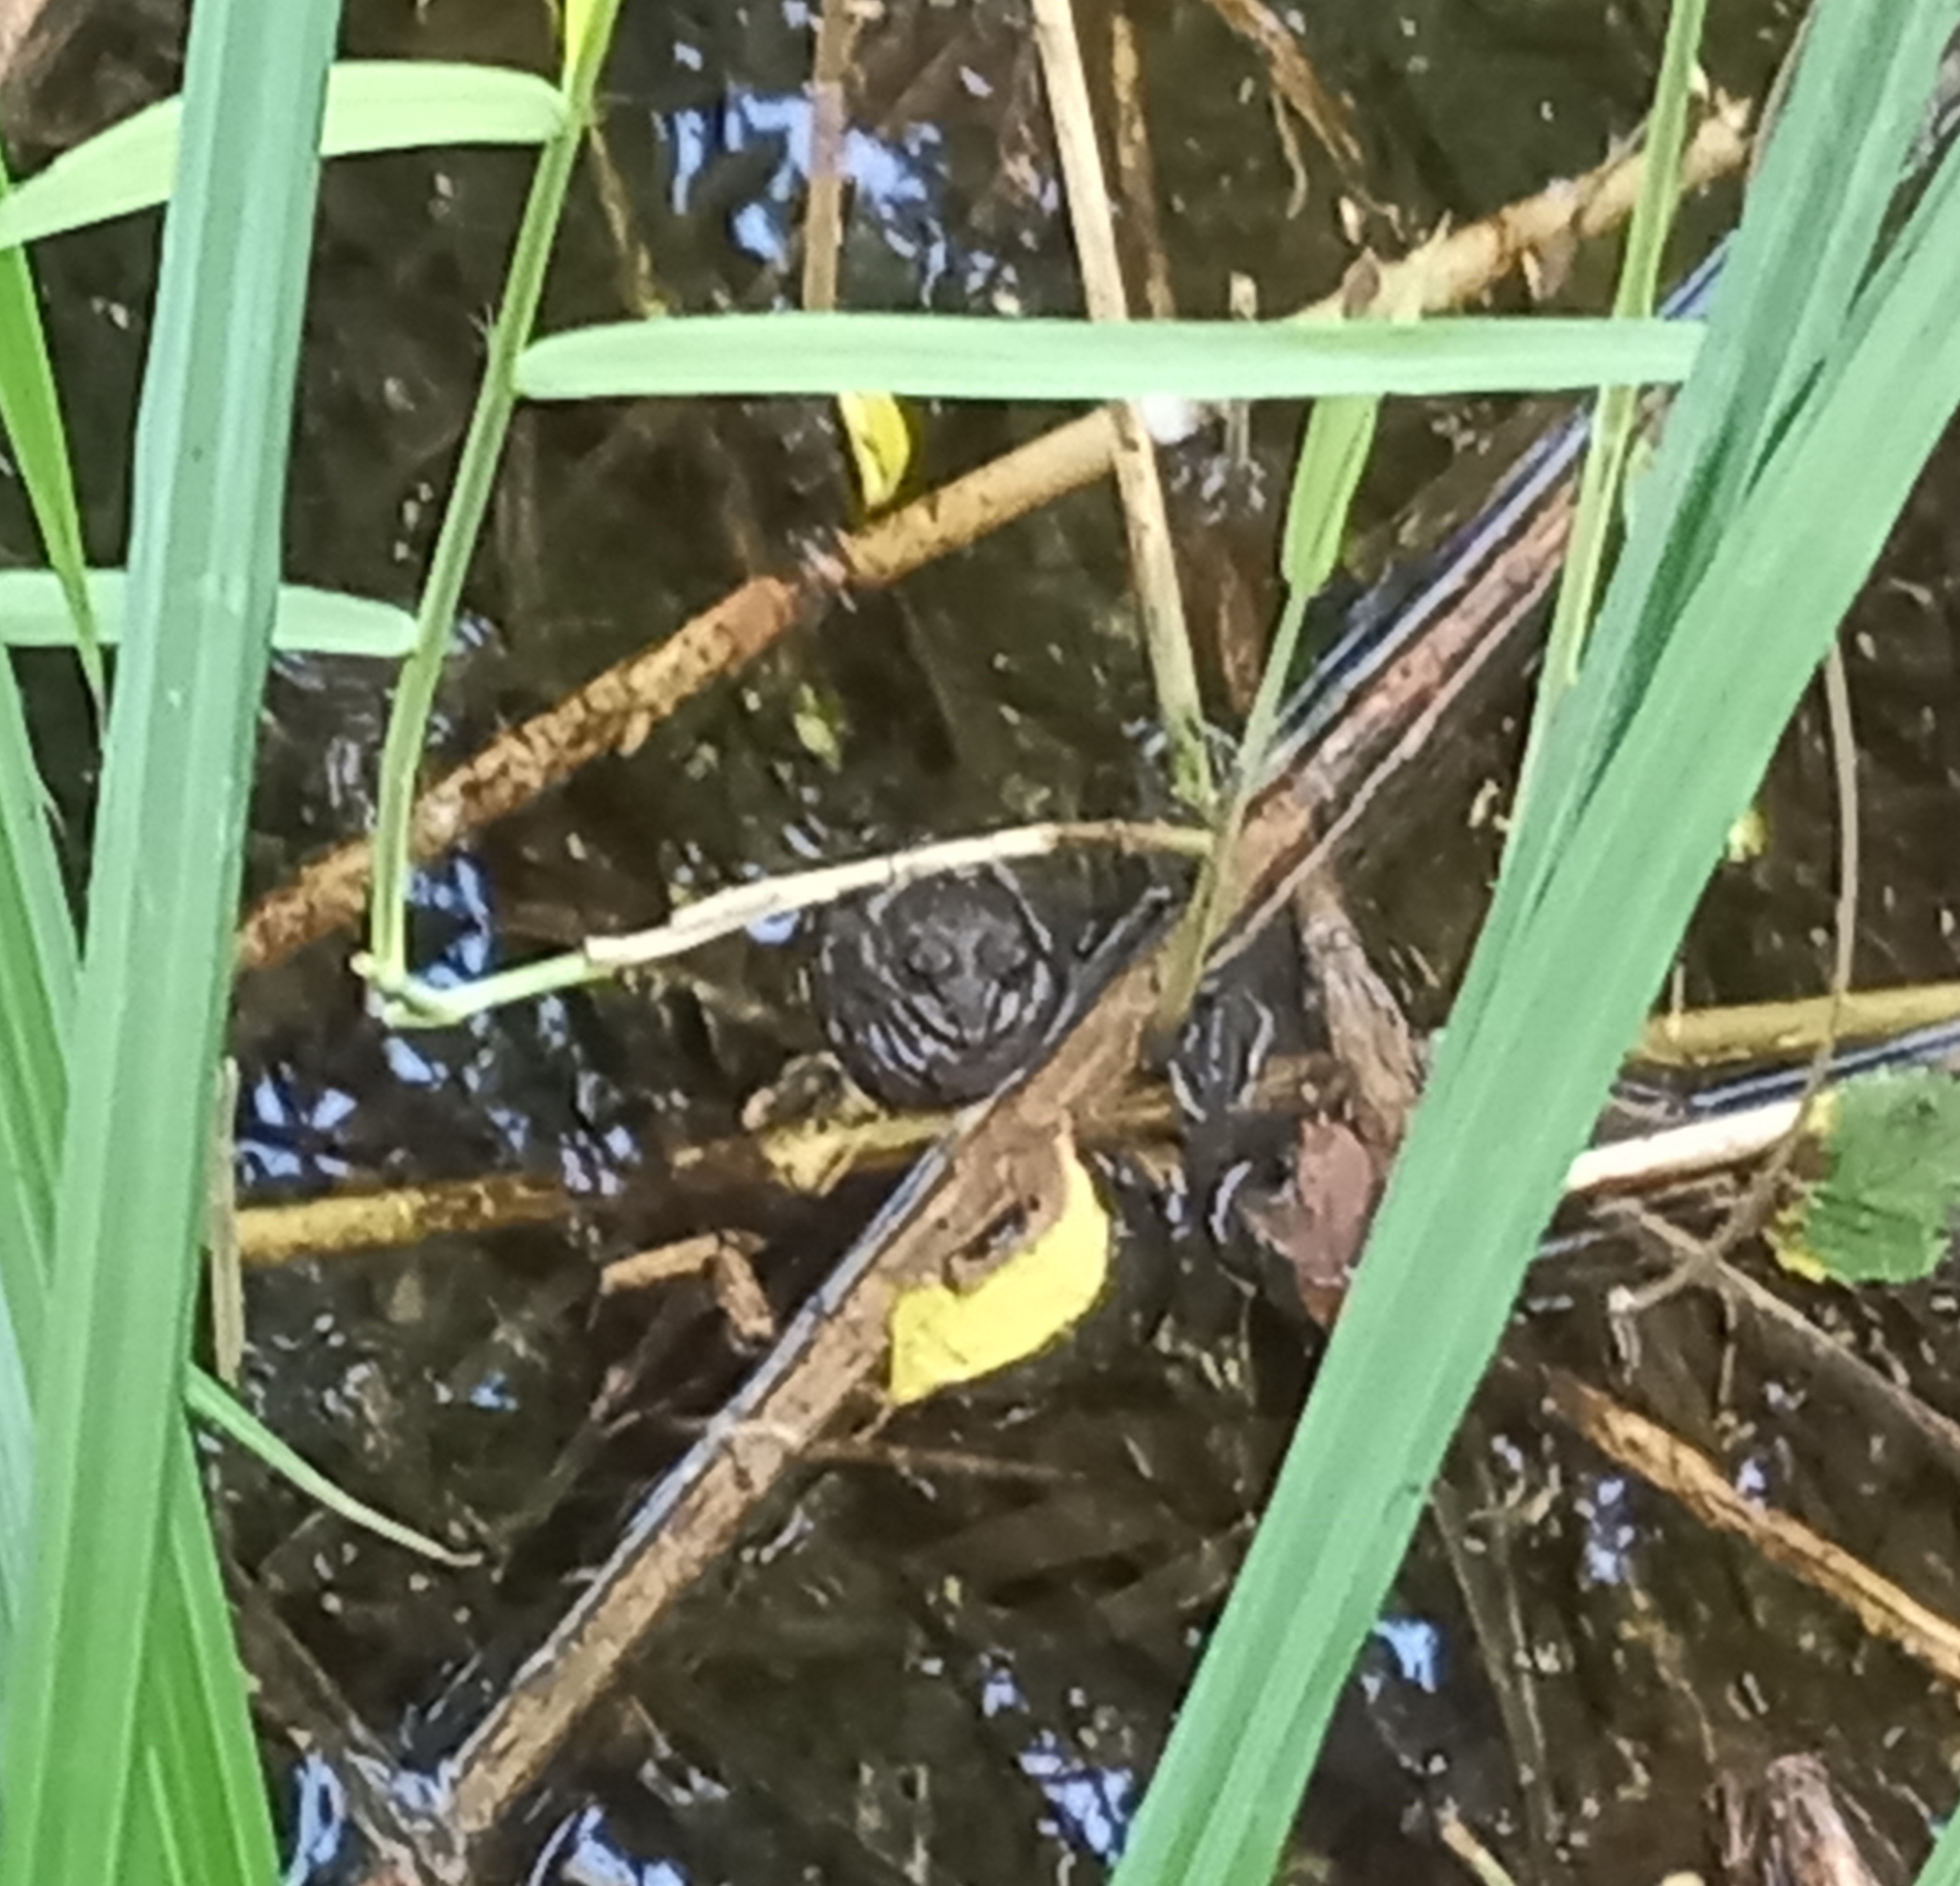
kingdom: Animalia
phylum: Chordata
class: Amphibia
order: Anura
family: Ranidae
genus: Pelophylax
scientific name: Pelophylax
